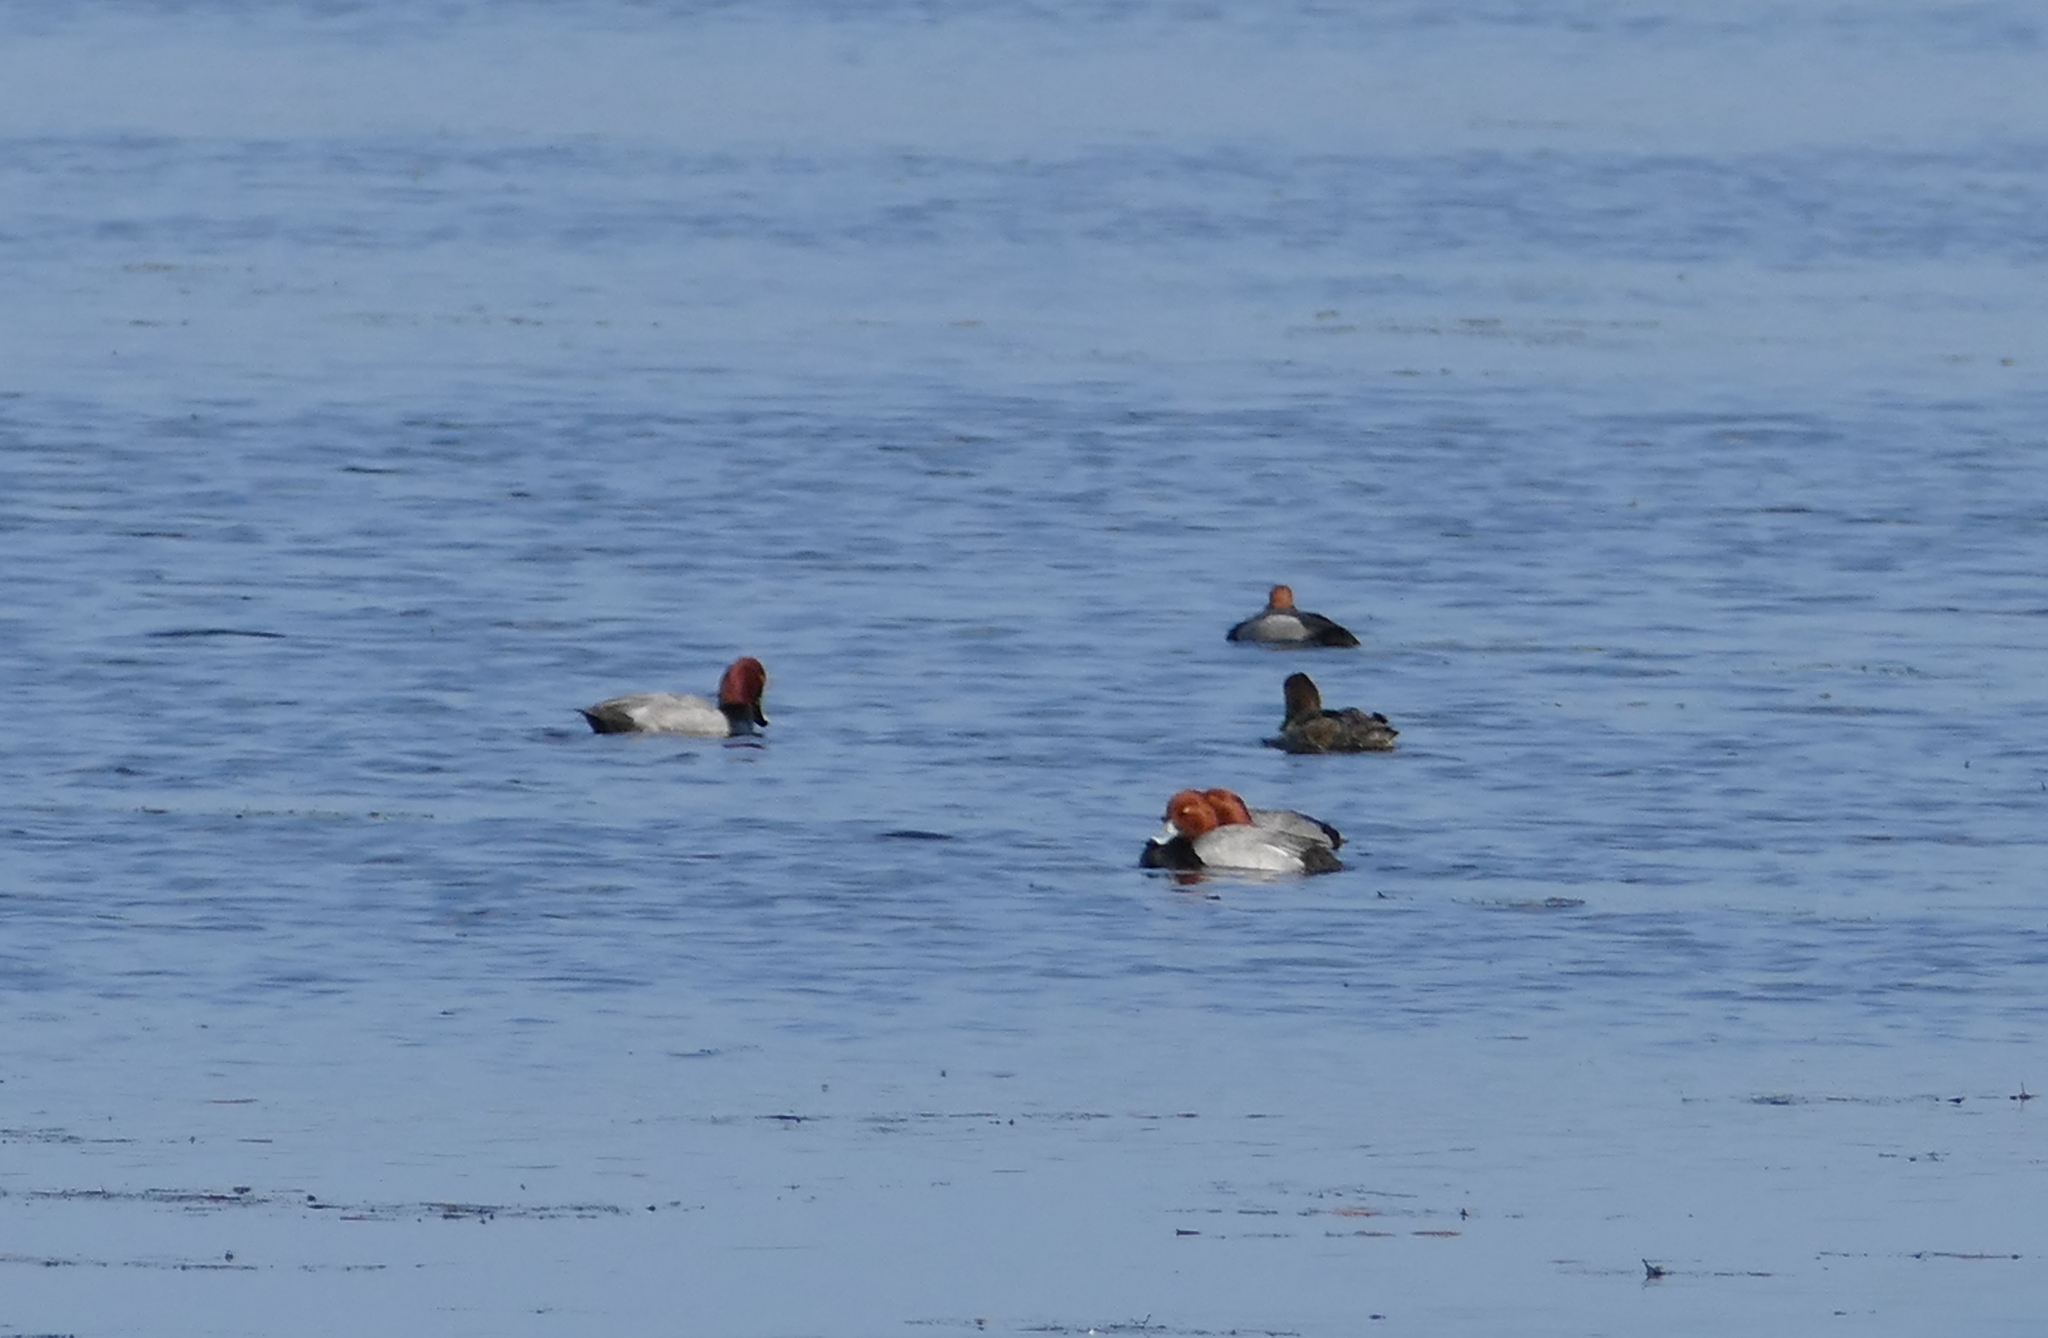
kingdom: Animalia
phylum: Chordata
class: Aves
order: Anseriformes
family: Anatidae
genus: Aythya
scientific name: Aythya americana
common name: Redhead
